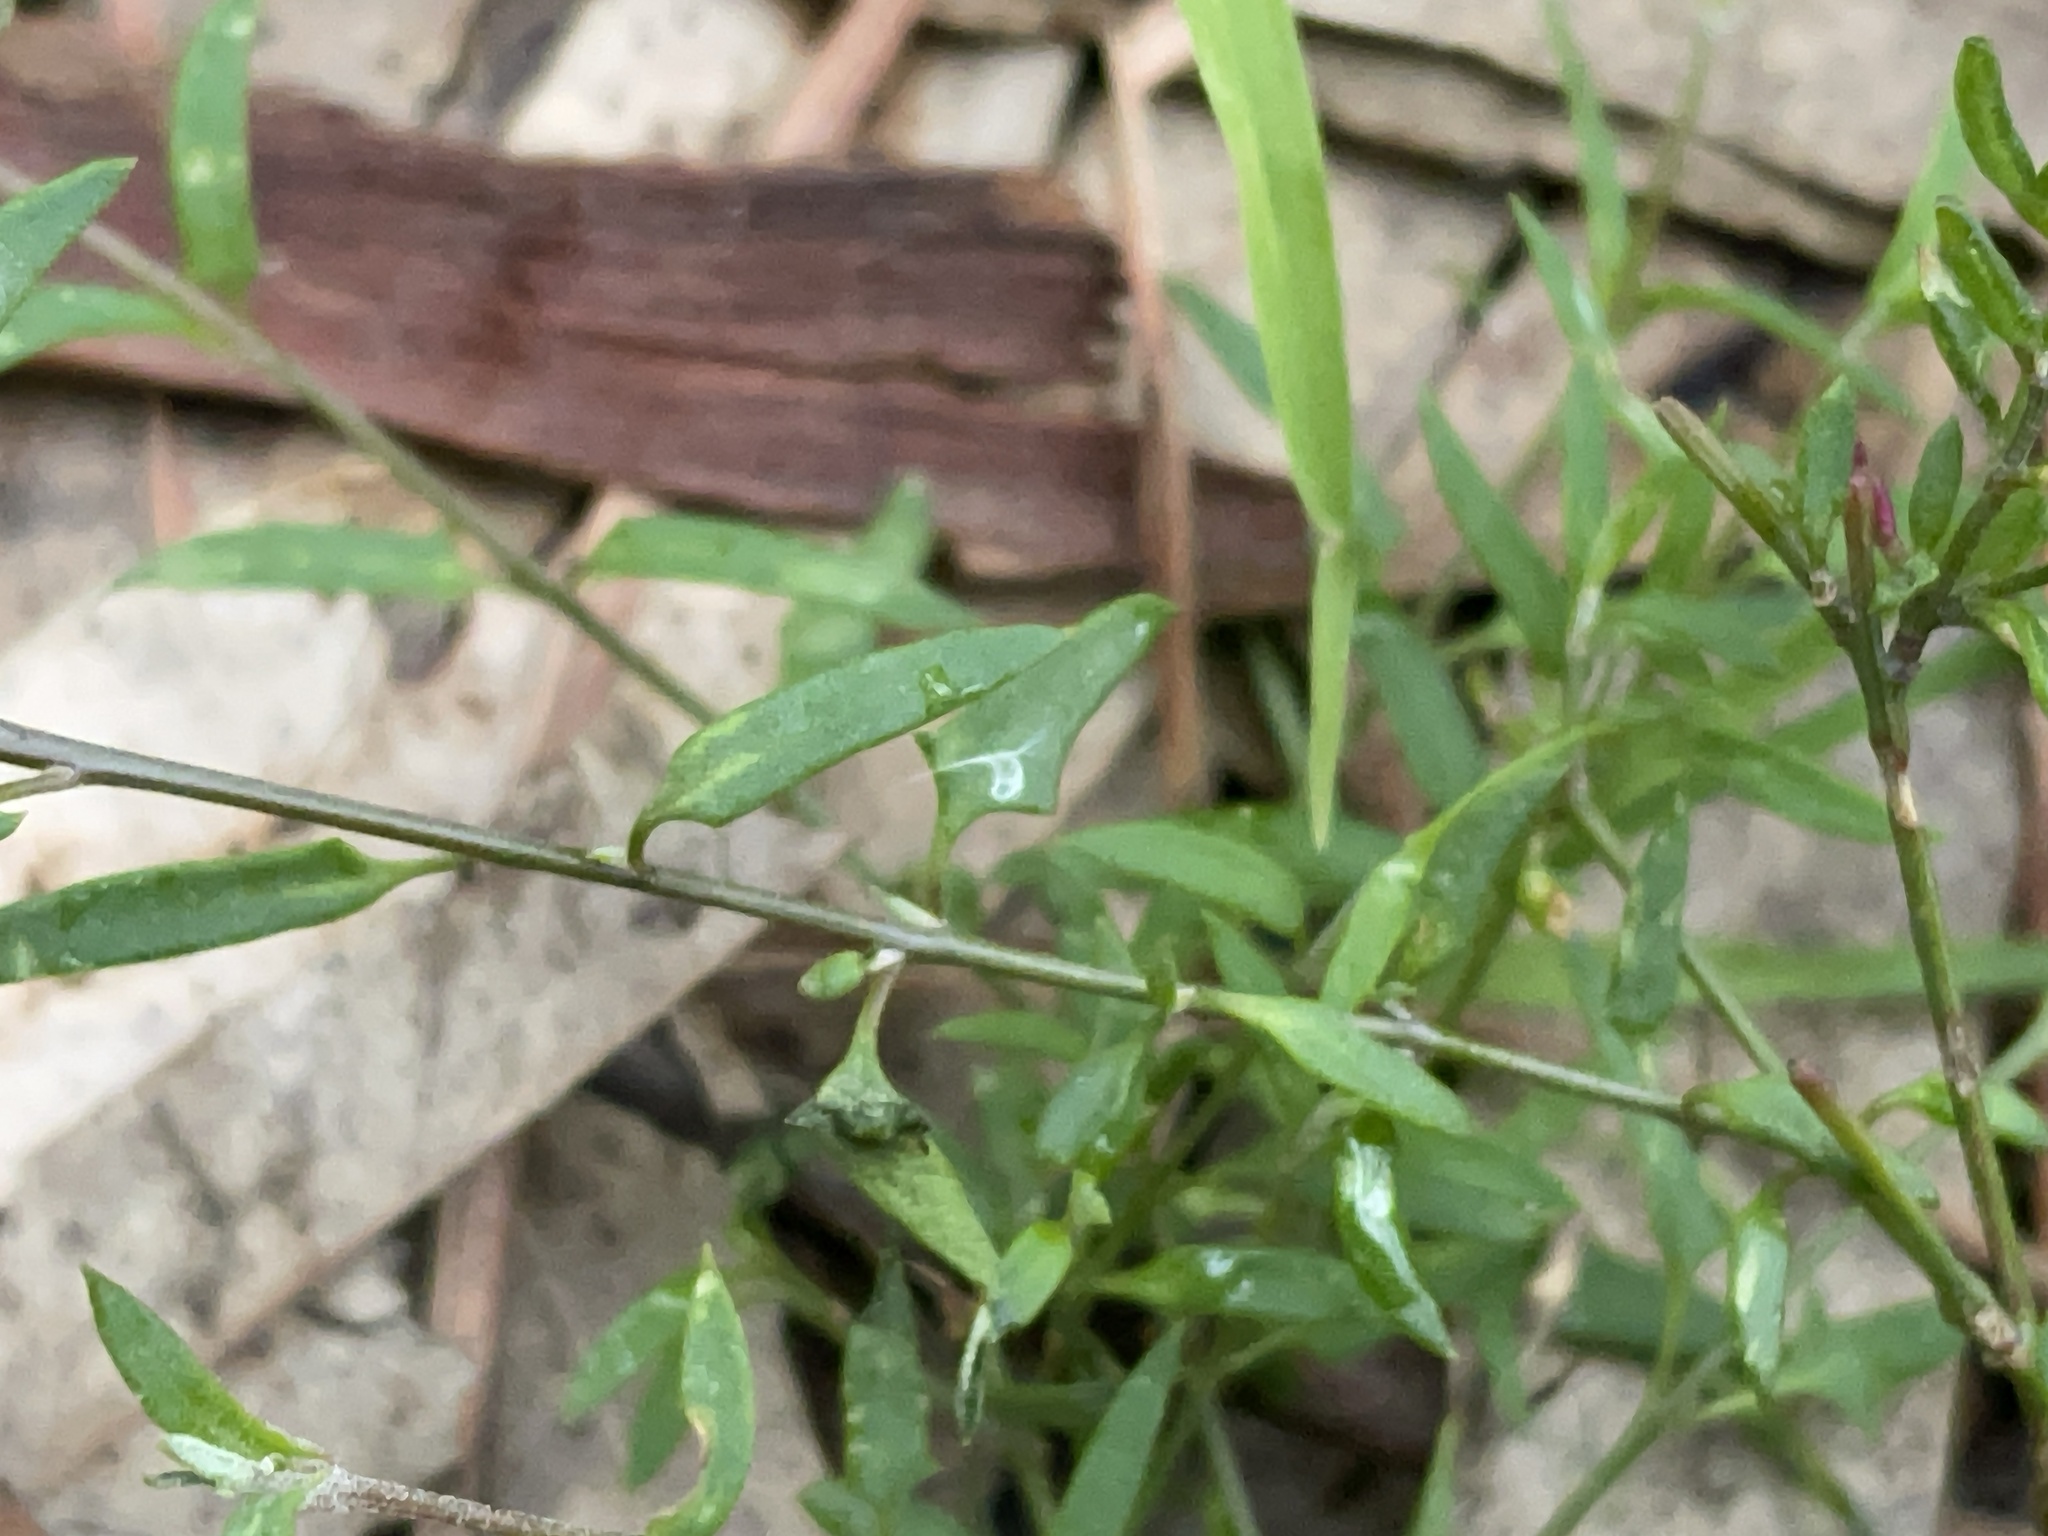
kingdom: Plantae
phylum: Tracheophyta
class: Magnoliopsida
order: Caryophyllales
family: Amaranthaceae
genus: Chenopodium
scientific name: Chenopodium nutans
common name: Climbing-saltbush
